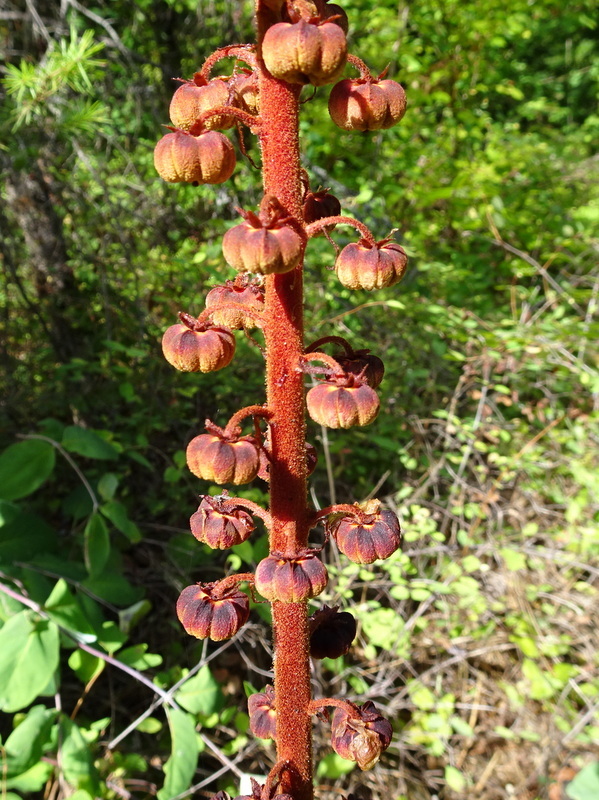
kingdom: Plantae
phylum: Tracheophyta
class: Magnoliopsida
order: Ericales
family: Ericaceae
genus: Pterospora
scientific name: Pterospora andromedea
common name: Giant bird's-nest
